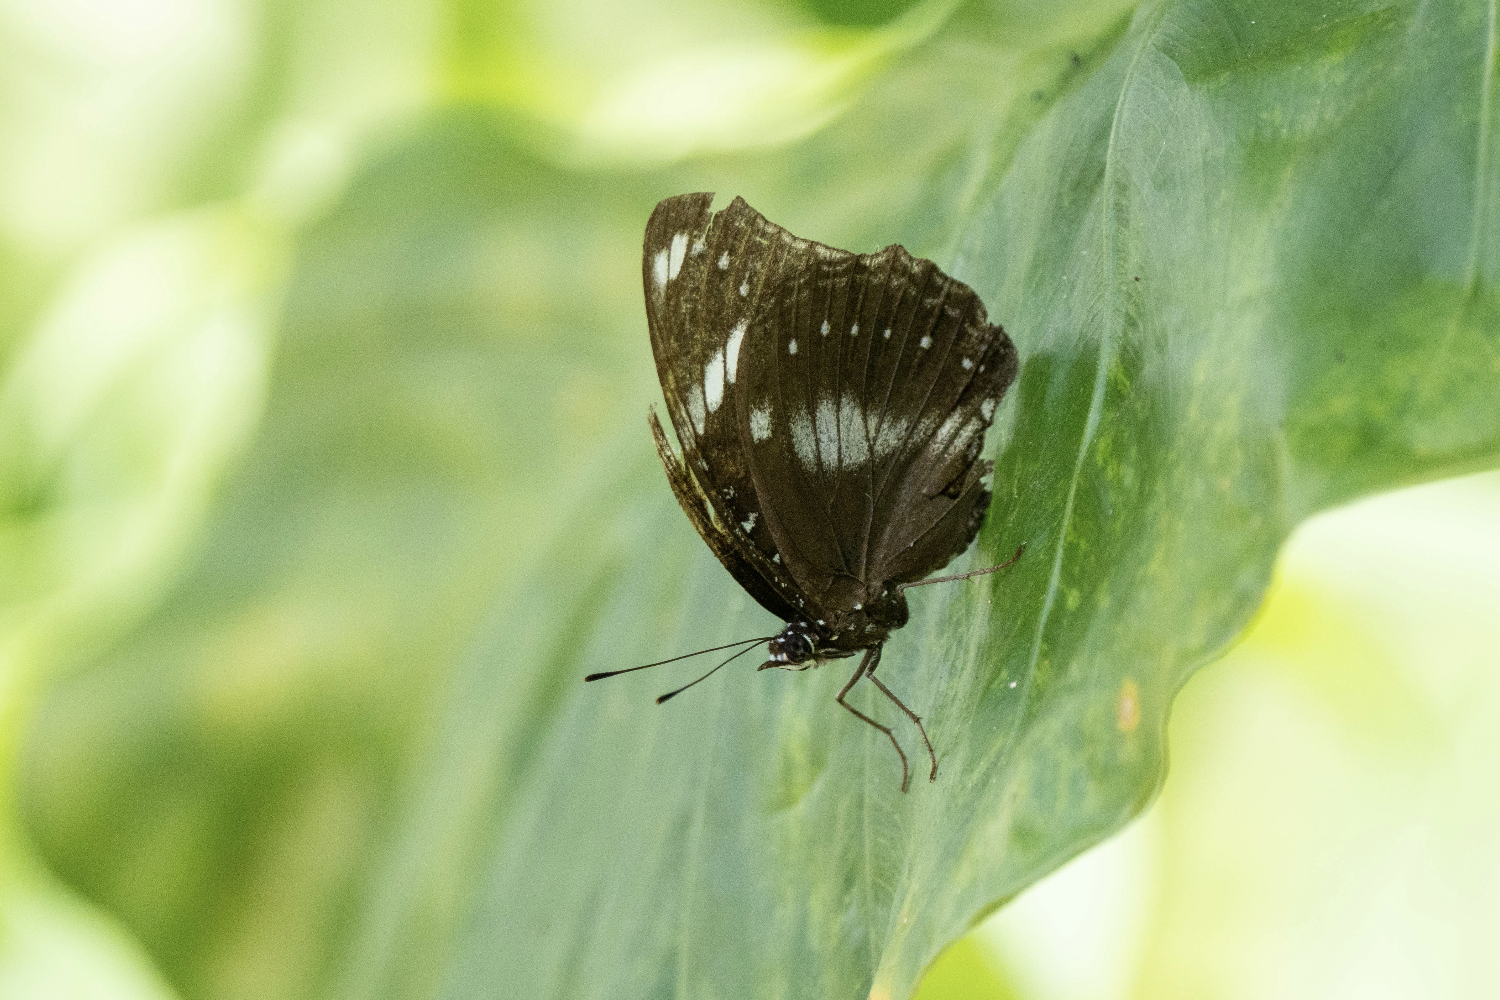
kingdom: Animalia
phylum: Arthropoda
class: Insecta
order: Lepidoptera
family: Nymphalidae
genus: Hypolimnas
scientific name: Hypolimnas bolina
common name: Great eggfly
